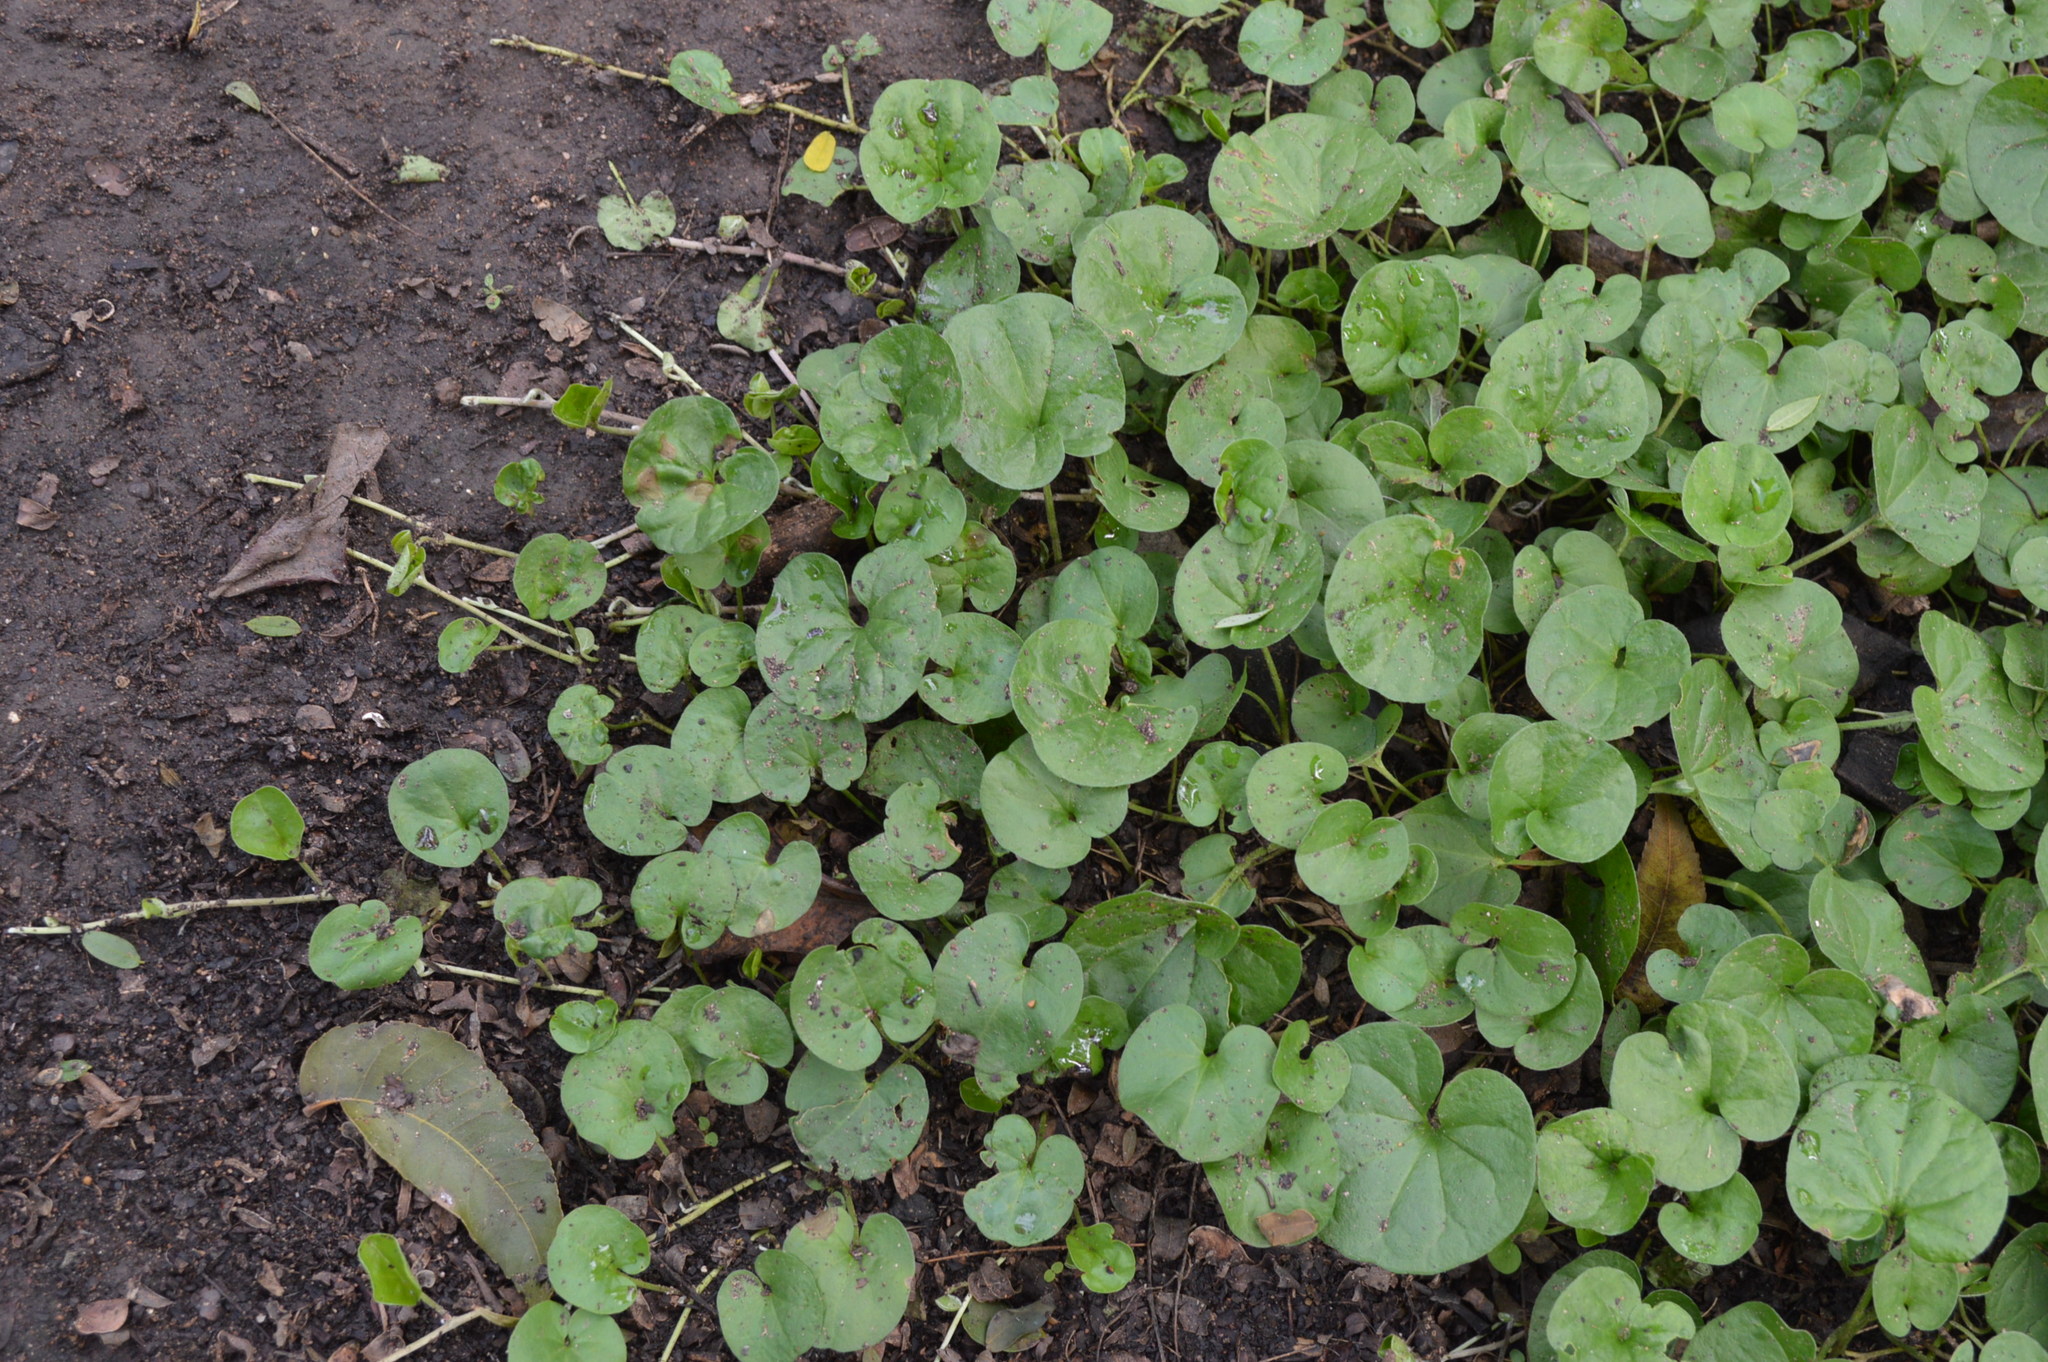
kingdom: Plantae
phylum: Tracheophyta
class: Magnoliopsida
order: Solanales
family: Convolvulaceae
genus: Dichondra
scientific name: Dichondra micrantha
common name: Kidneyweed
